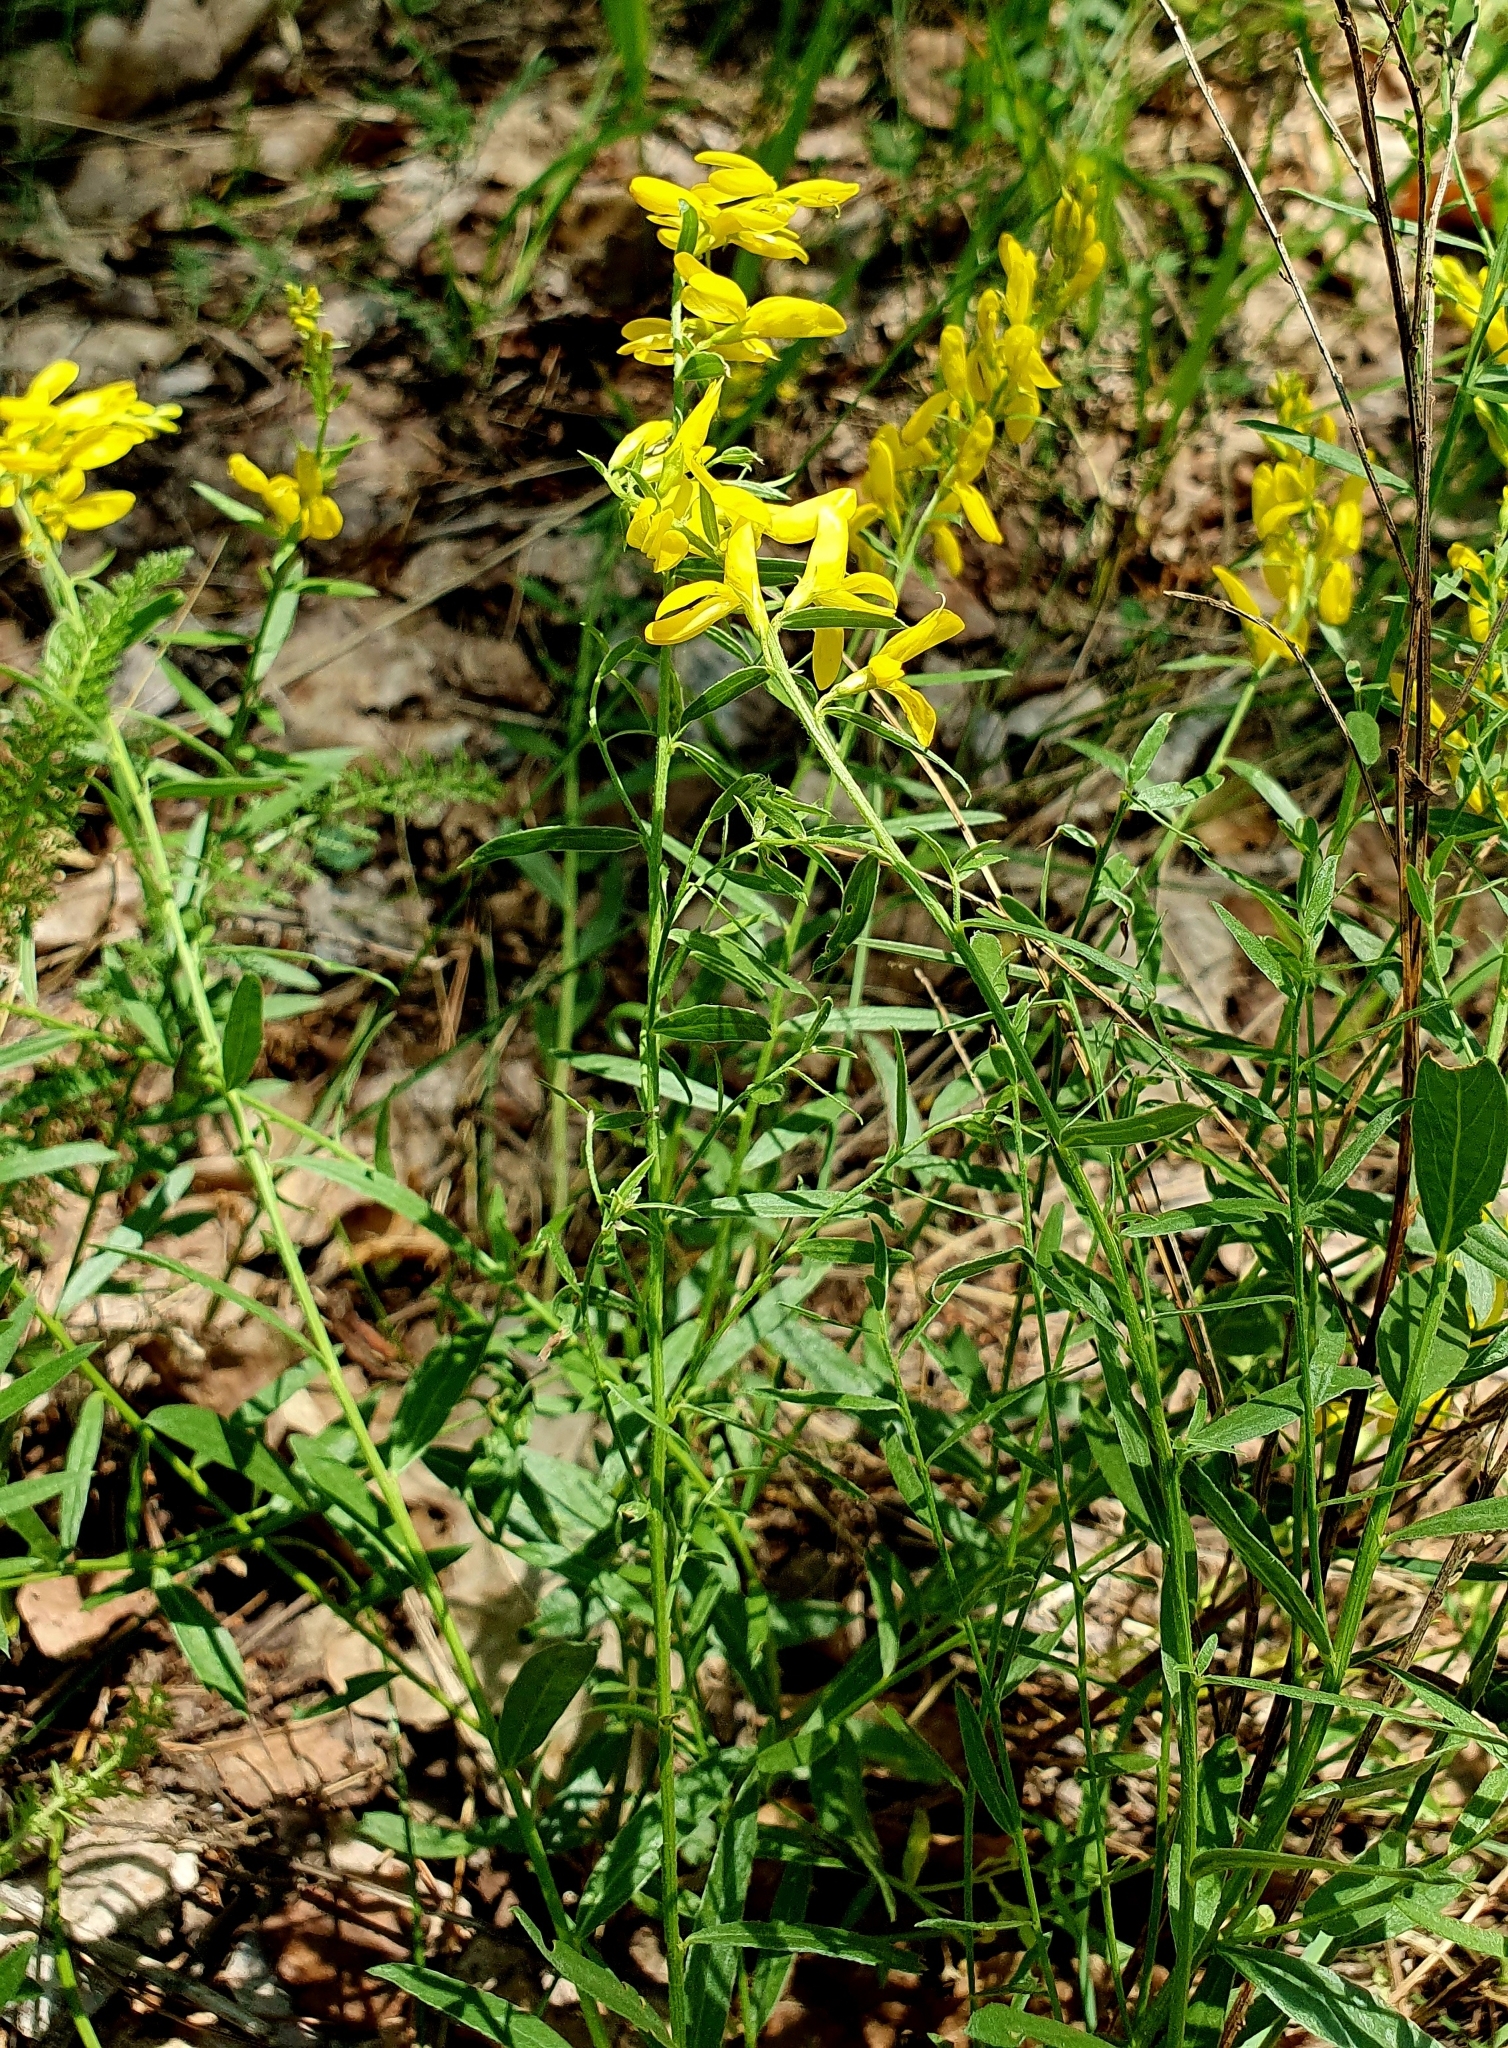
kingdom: Plantae
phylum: Tracheophyta
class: Magnoliopsida
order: Fabales
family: Fabaceae
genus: Genista
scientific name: Genista tinctoria
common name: Dyer's greenweed
